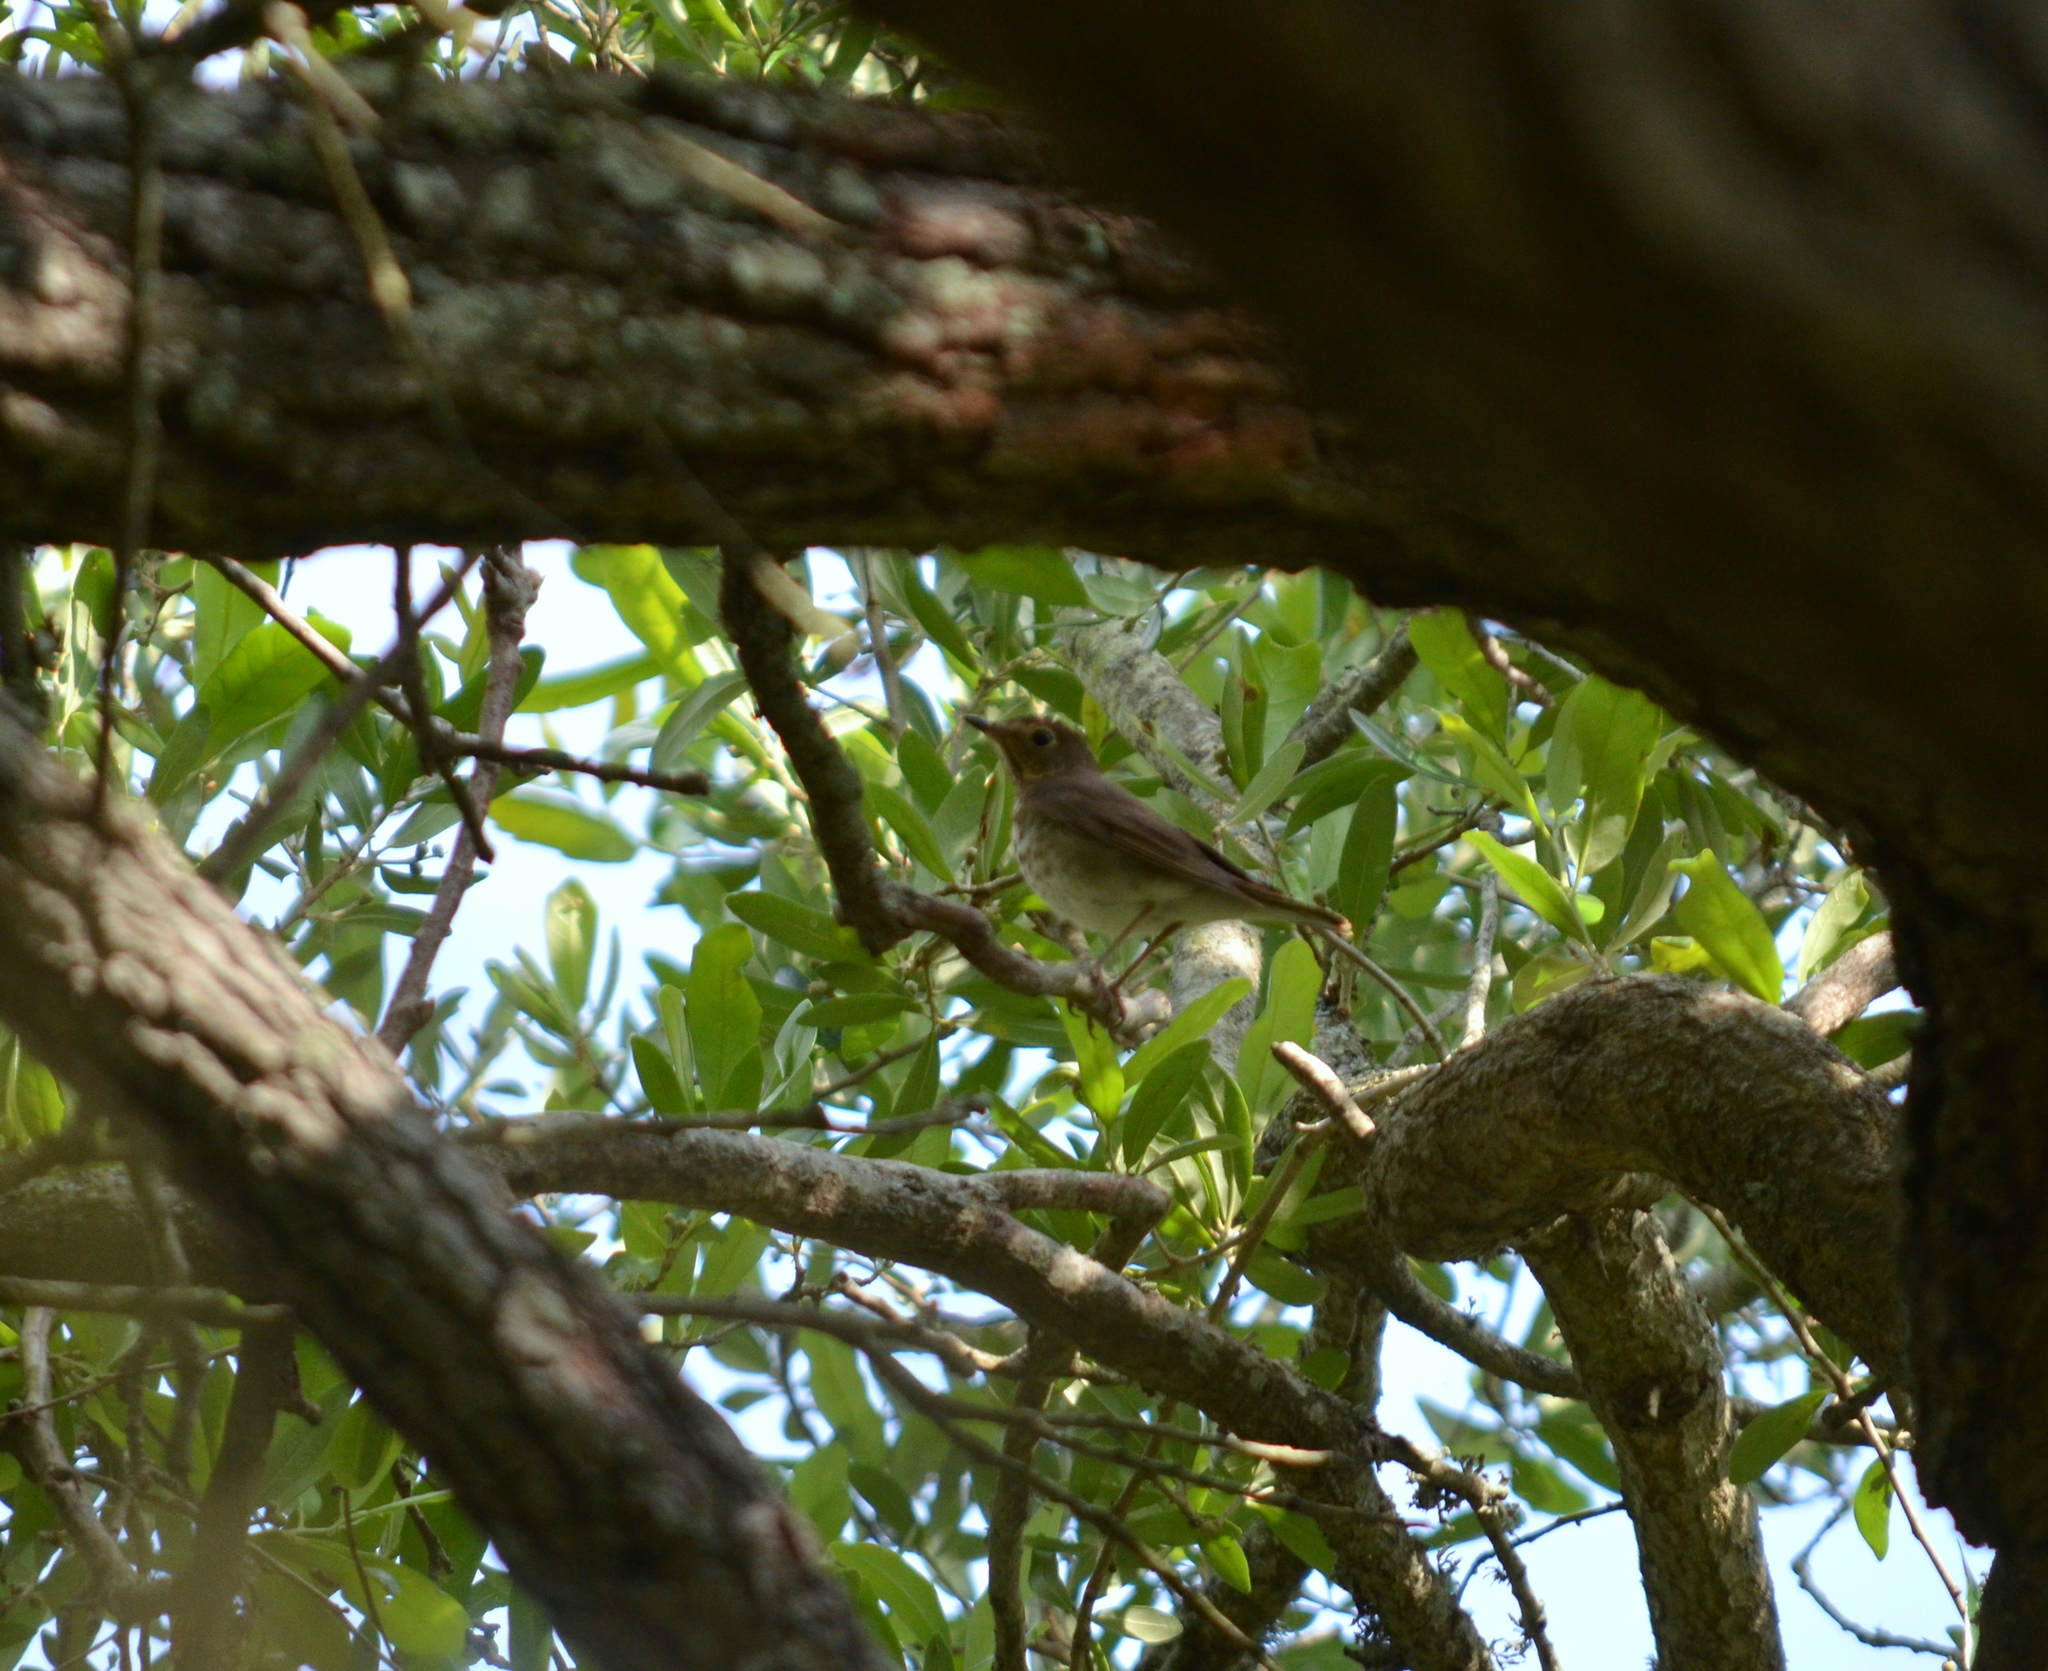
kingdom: Animalia
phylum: Chordata
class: Aves
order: Passeriformes
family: Turdidae
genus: Catharus
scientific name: Catharus ustulatus
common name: Swainson's thrush
